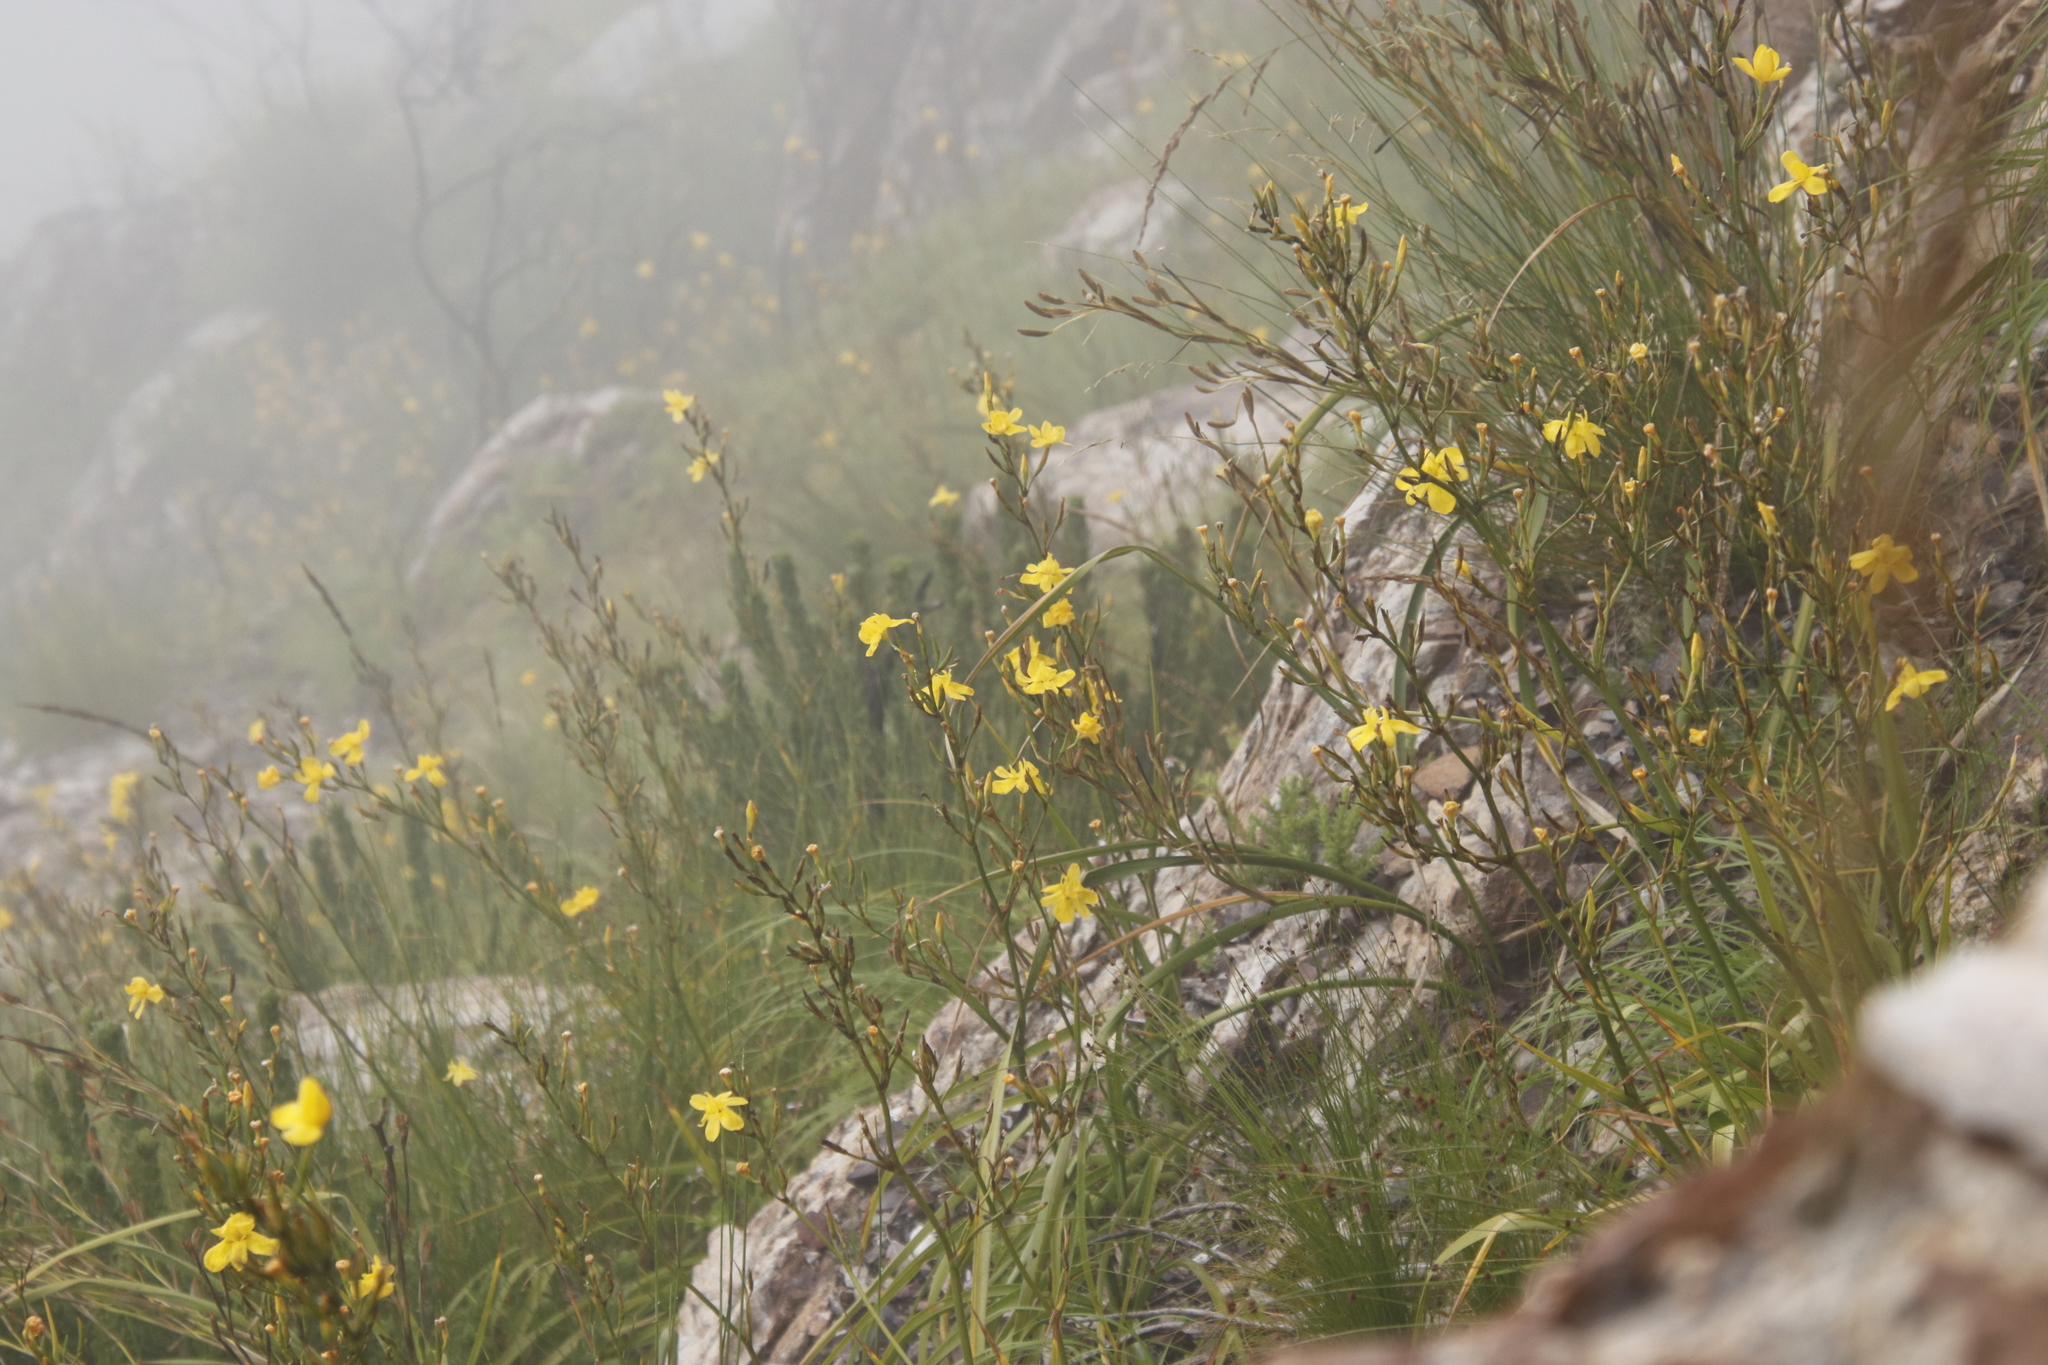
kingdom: Plantae
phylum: Tracheophyta
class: Liliopsida
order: Asparagales
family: Iridaceae
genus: Moraea
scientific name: Moraea ramosissima
